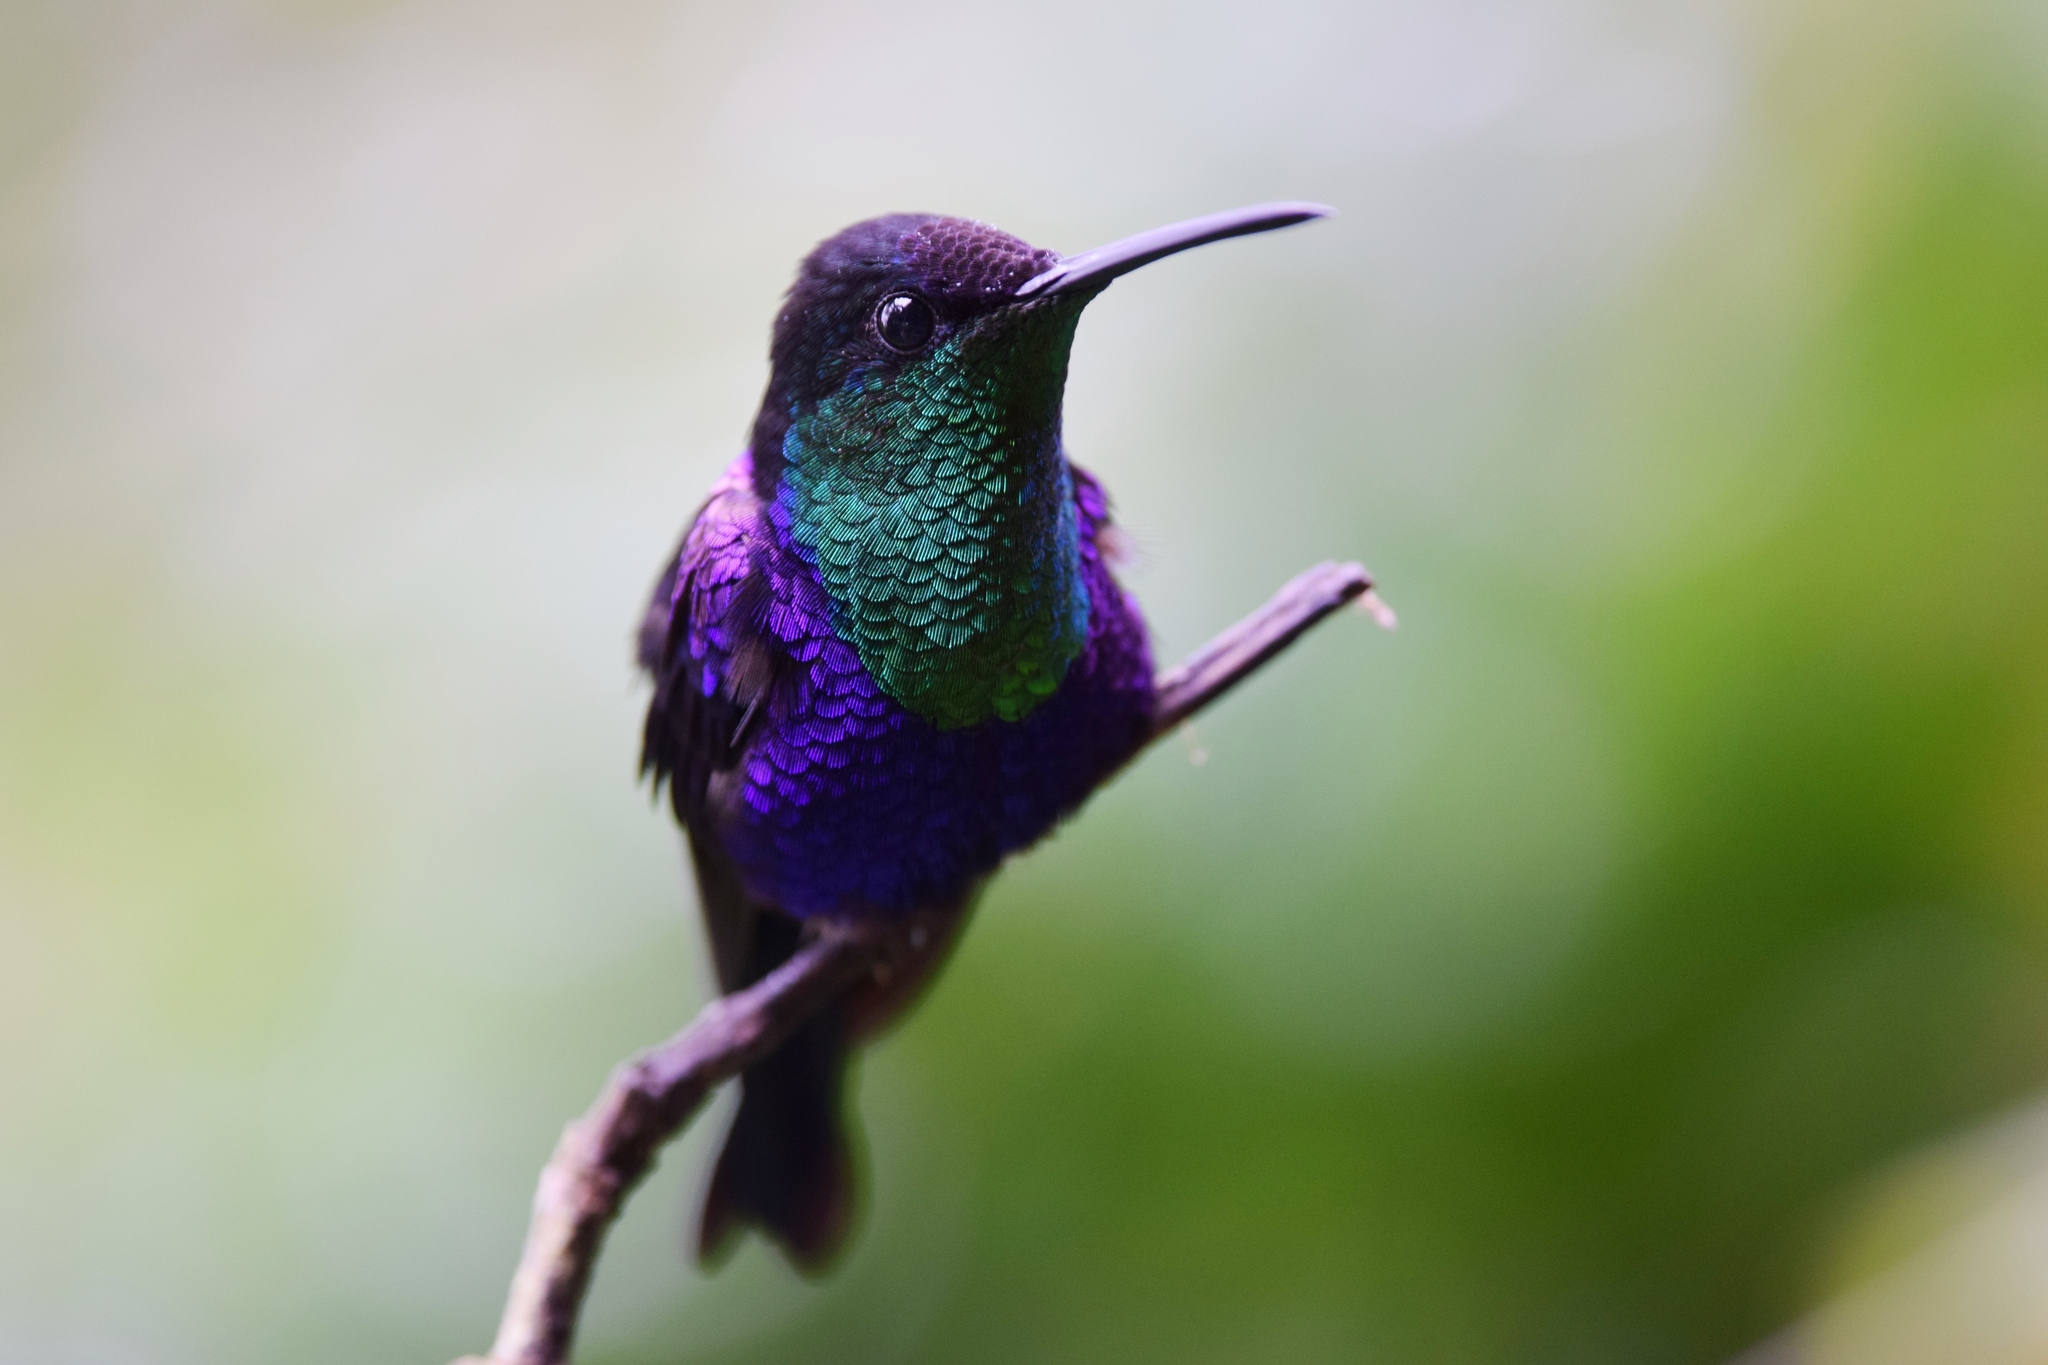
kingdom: Animalia
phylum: Chordata
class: Aves
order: Apodiformes
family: Trochilidae
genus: Thalurania
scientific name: Thalurania colombica
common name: Crowned woodnymph
